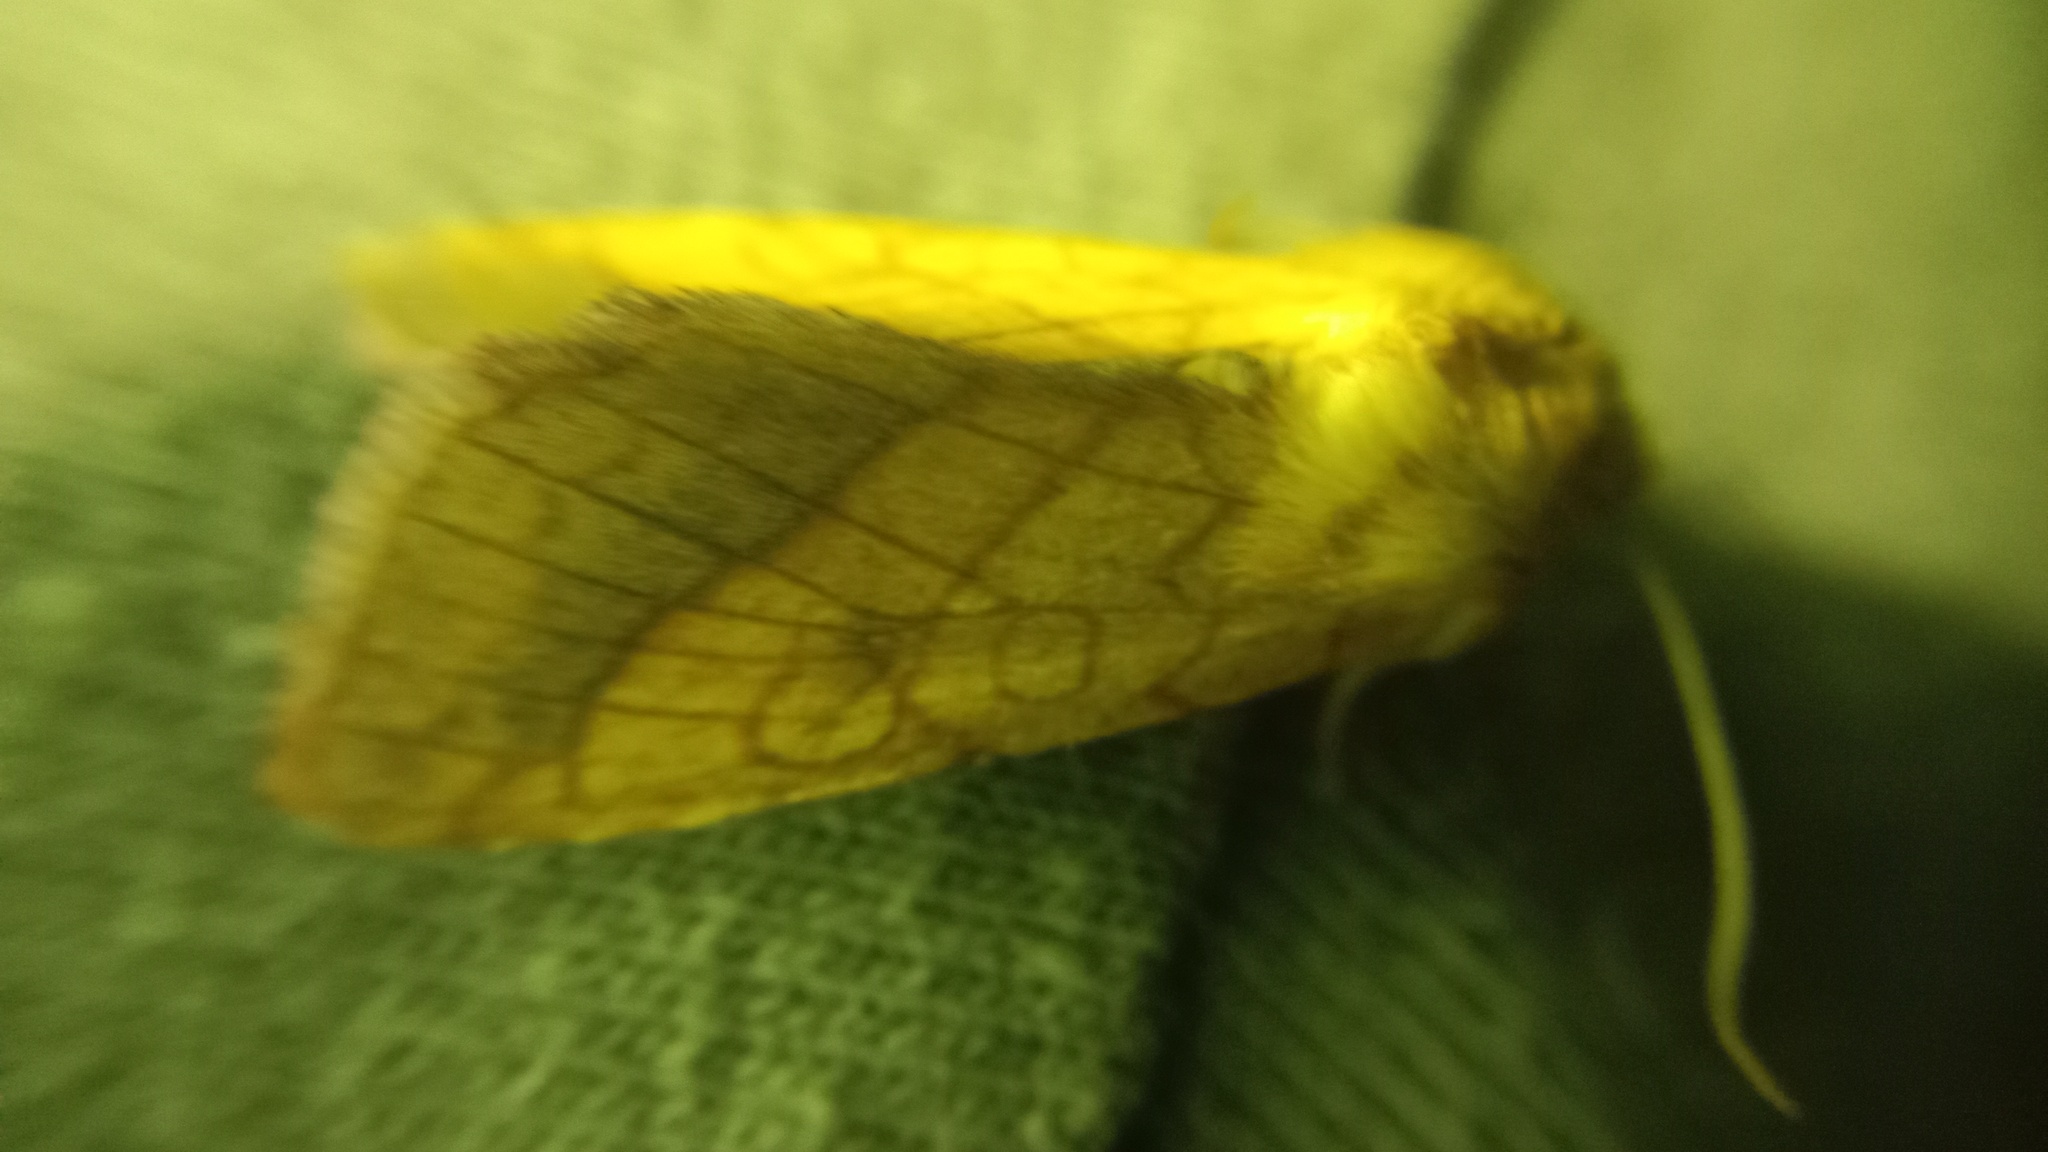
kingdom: Animalia
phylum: Arthropoda
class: Insecta
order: Lepidoptera
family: Noctuidae
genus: Pyrrhia
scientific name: Pyrrhia umbra
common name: Bordered sallow
